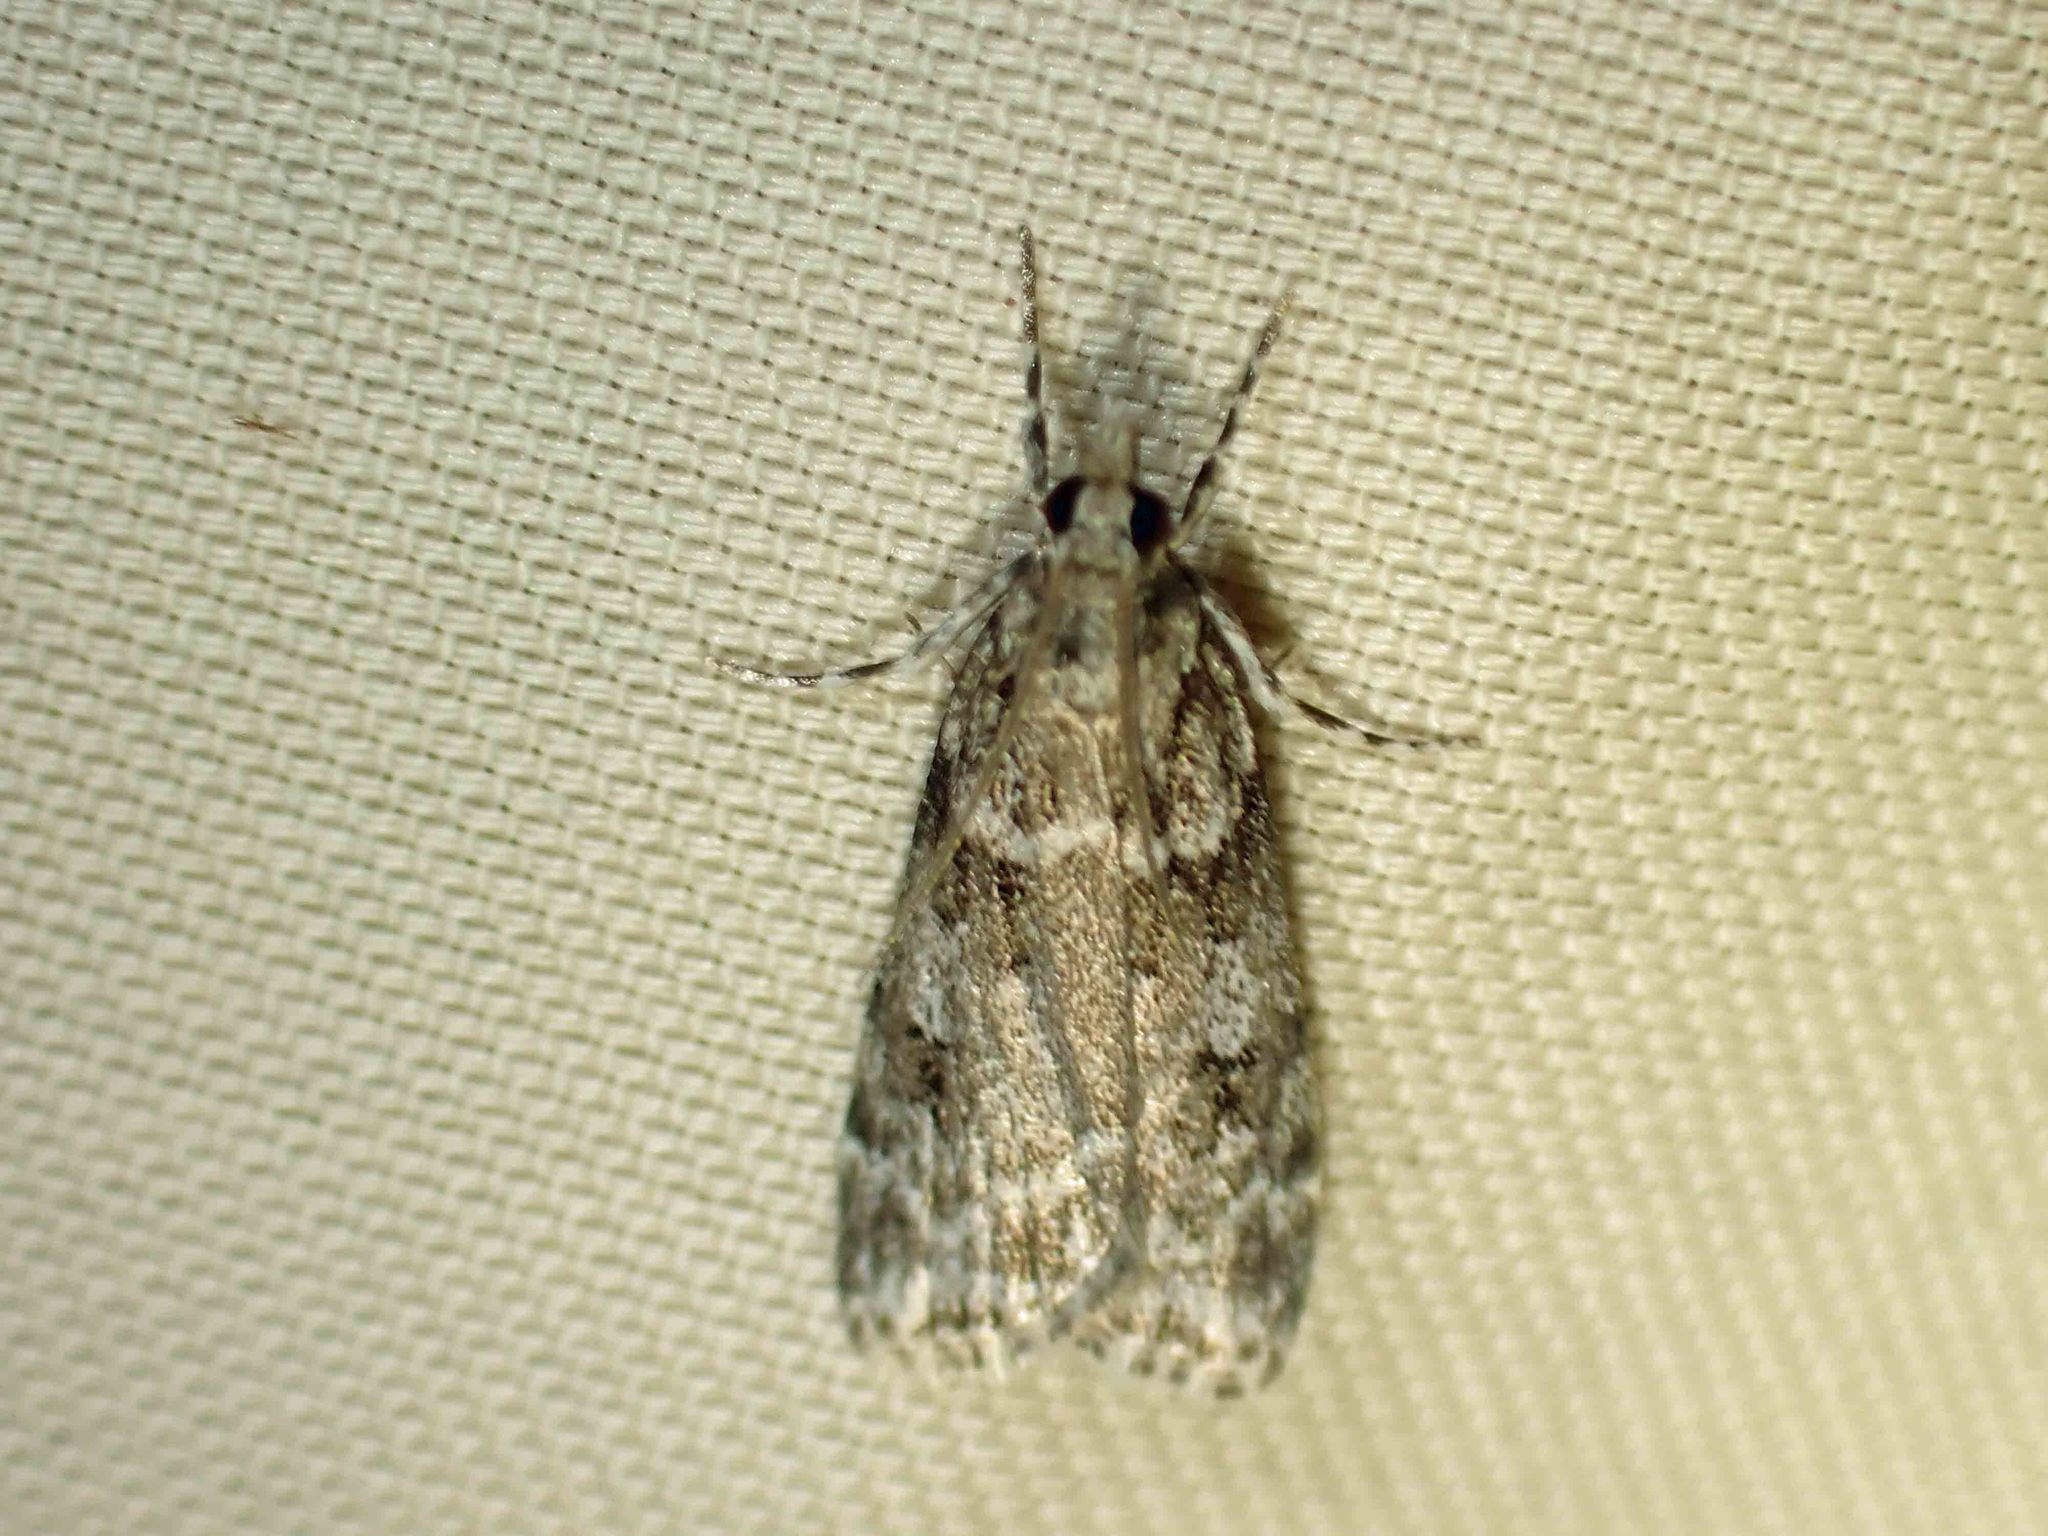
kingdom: Animalia
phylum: Arthropoda
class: Insecta
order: Lepidoptera
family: Crambidae
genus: Scoparia
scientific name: Scoparia biplagialis
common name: Double-striped scoparia moth
